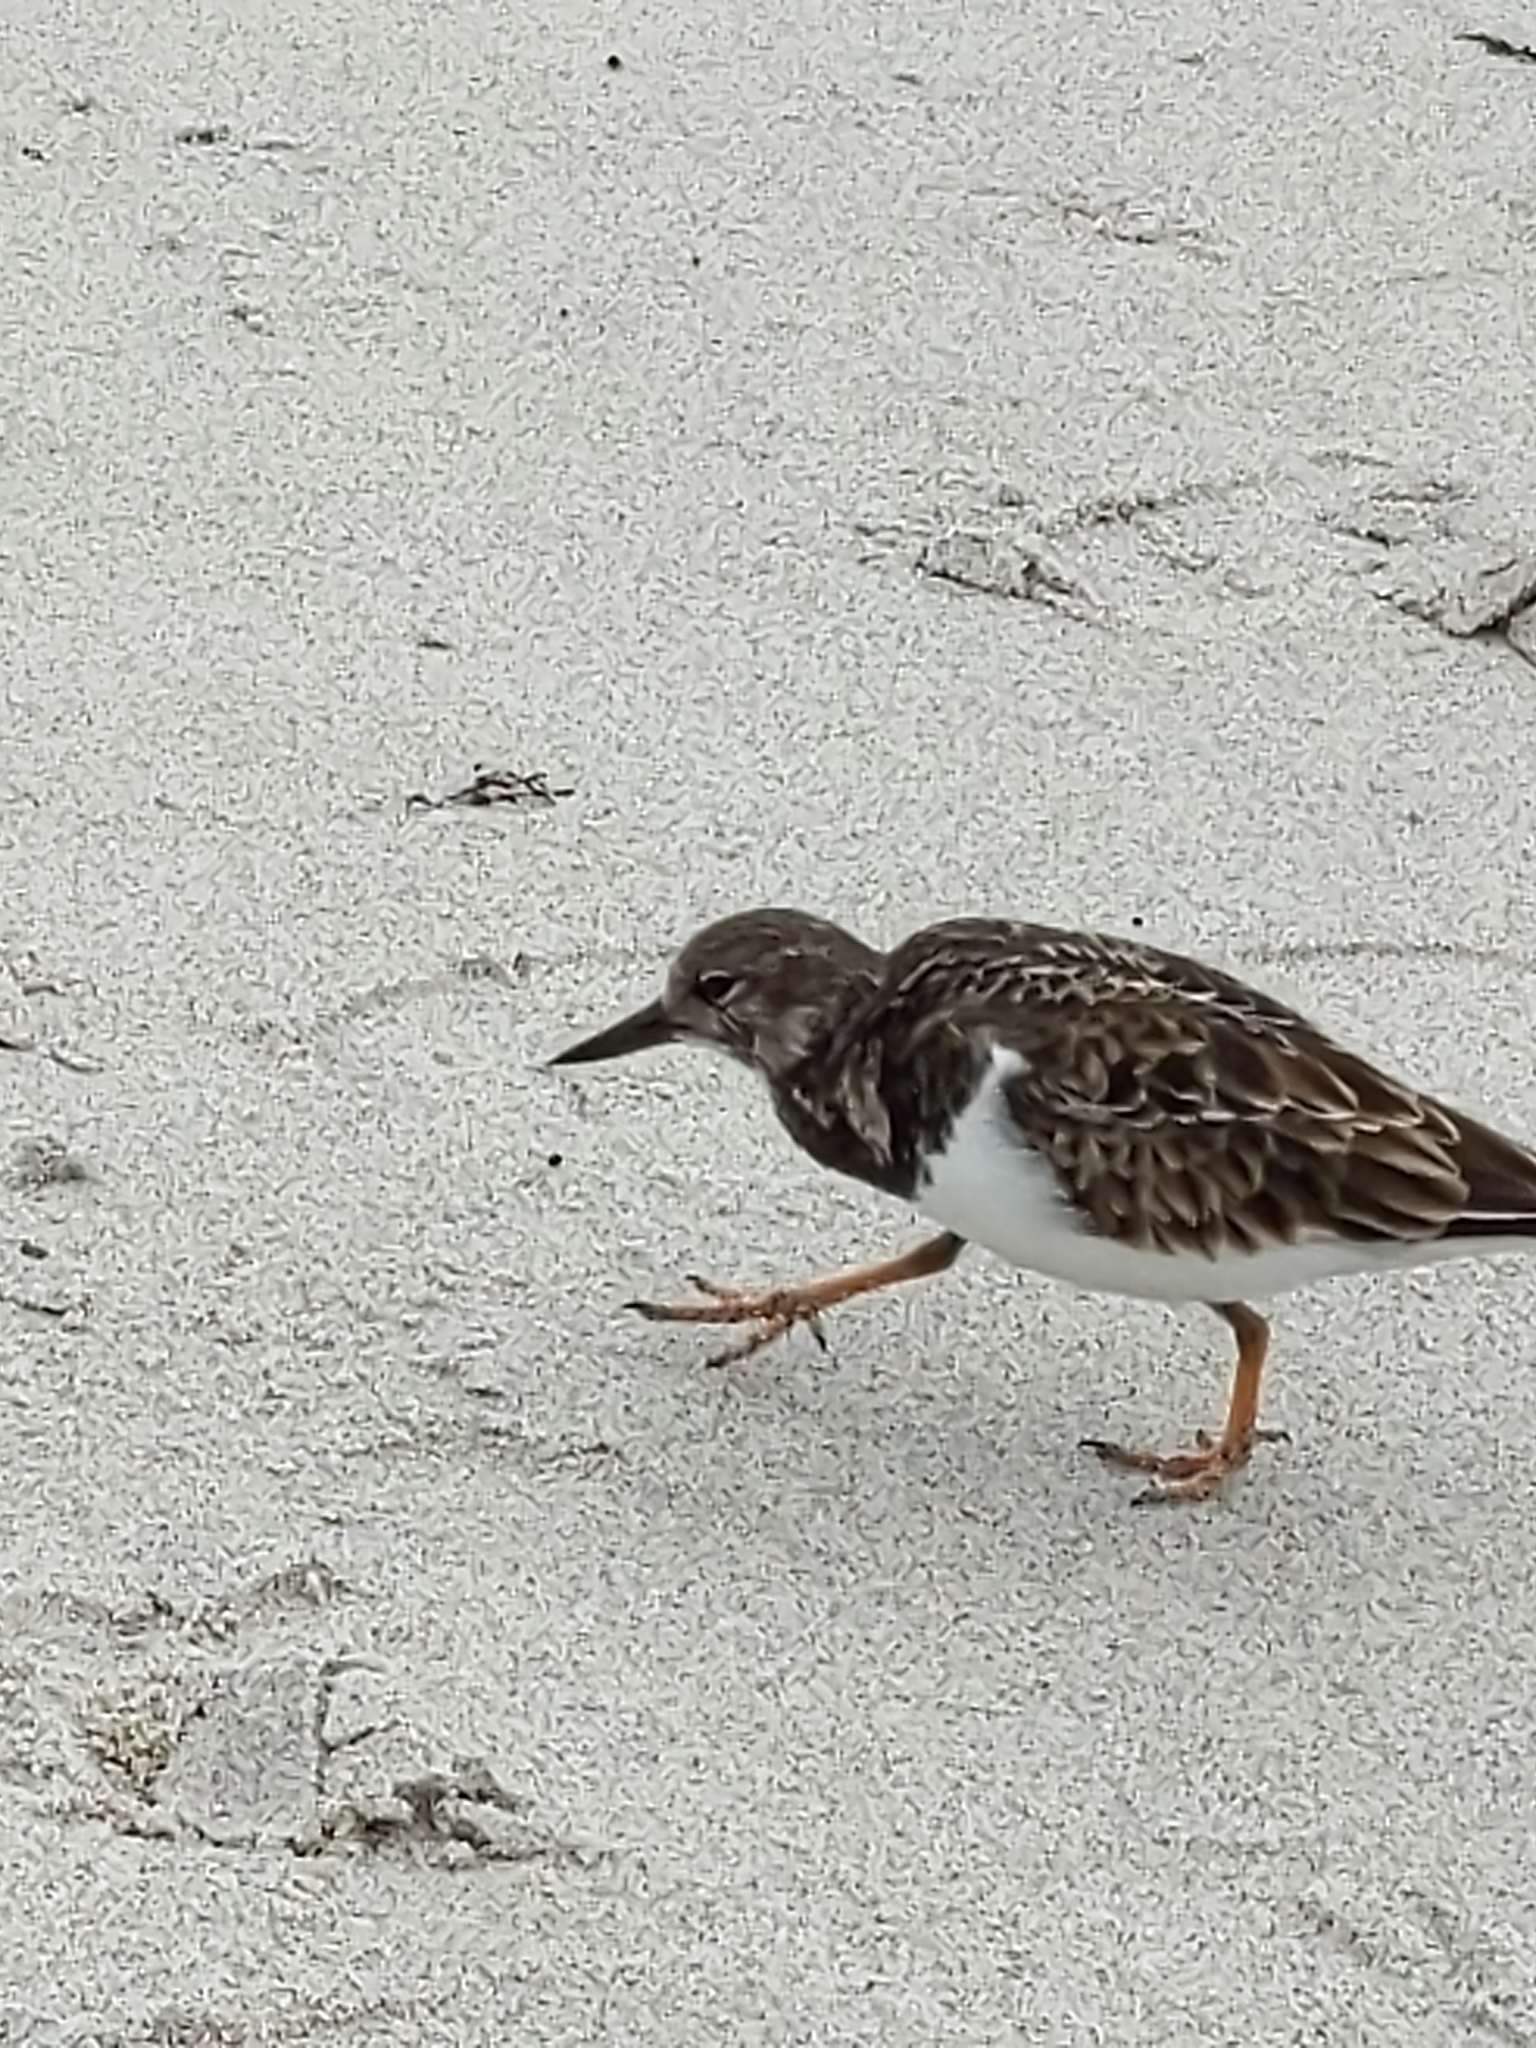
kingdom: Animalia
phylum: Chordata
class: Aves
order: Charadriiformes
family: Scolopacidae
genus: Arenaria
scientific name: Arenaria interpres
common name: Ruddy turnstone
